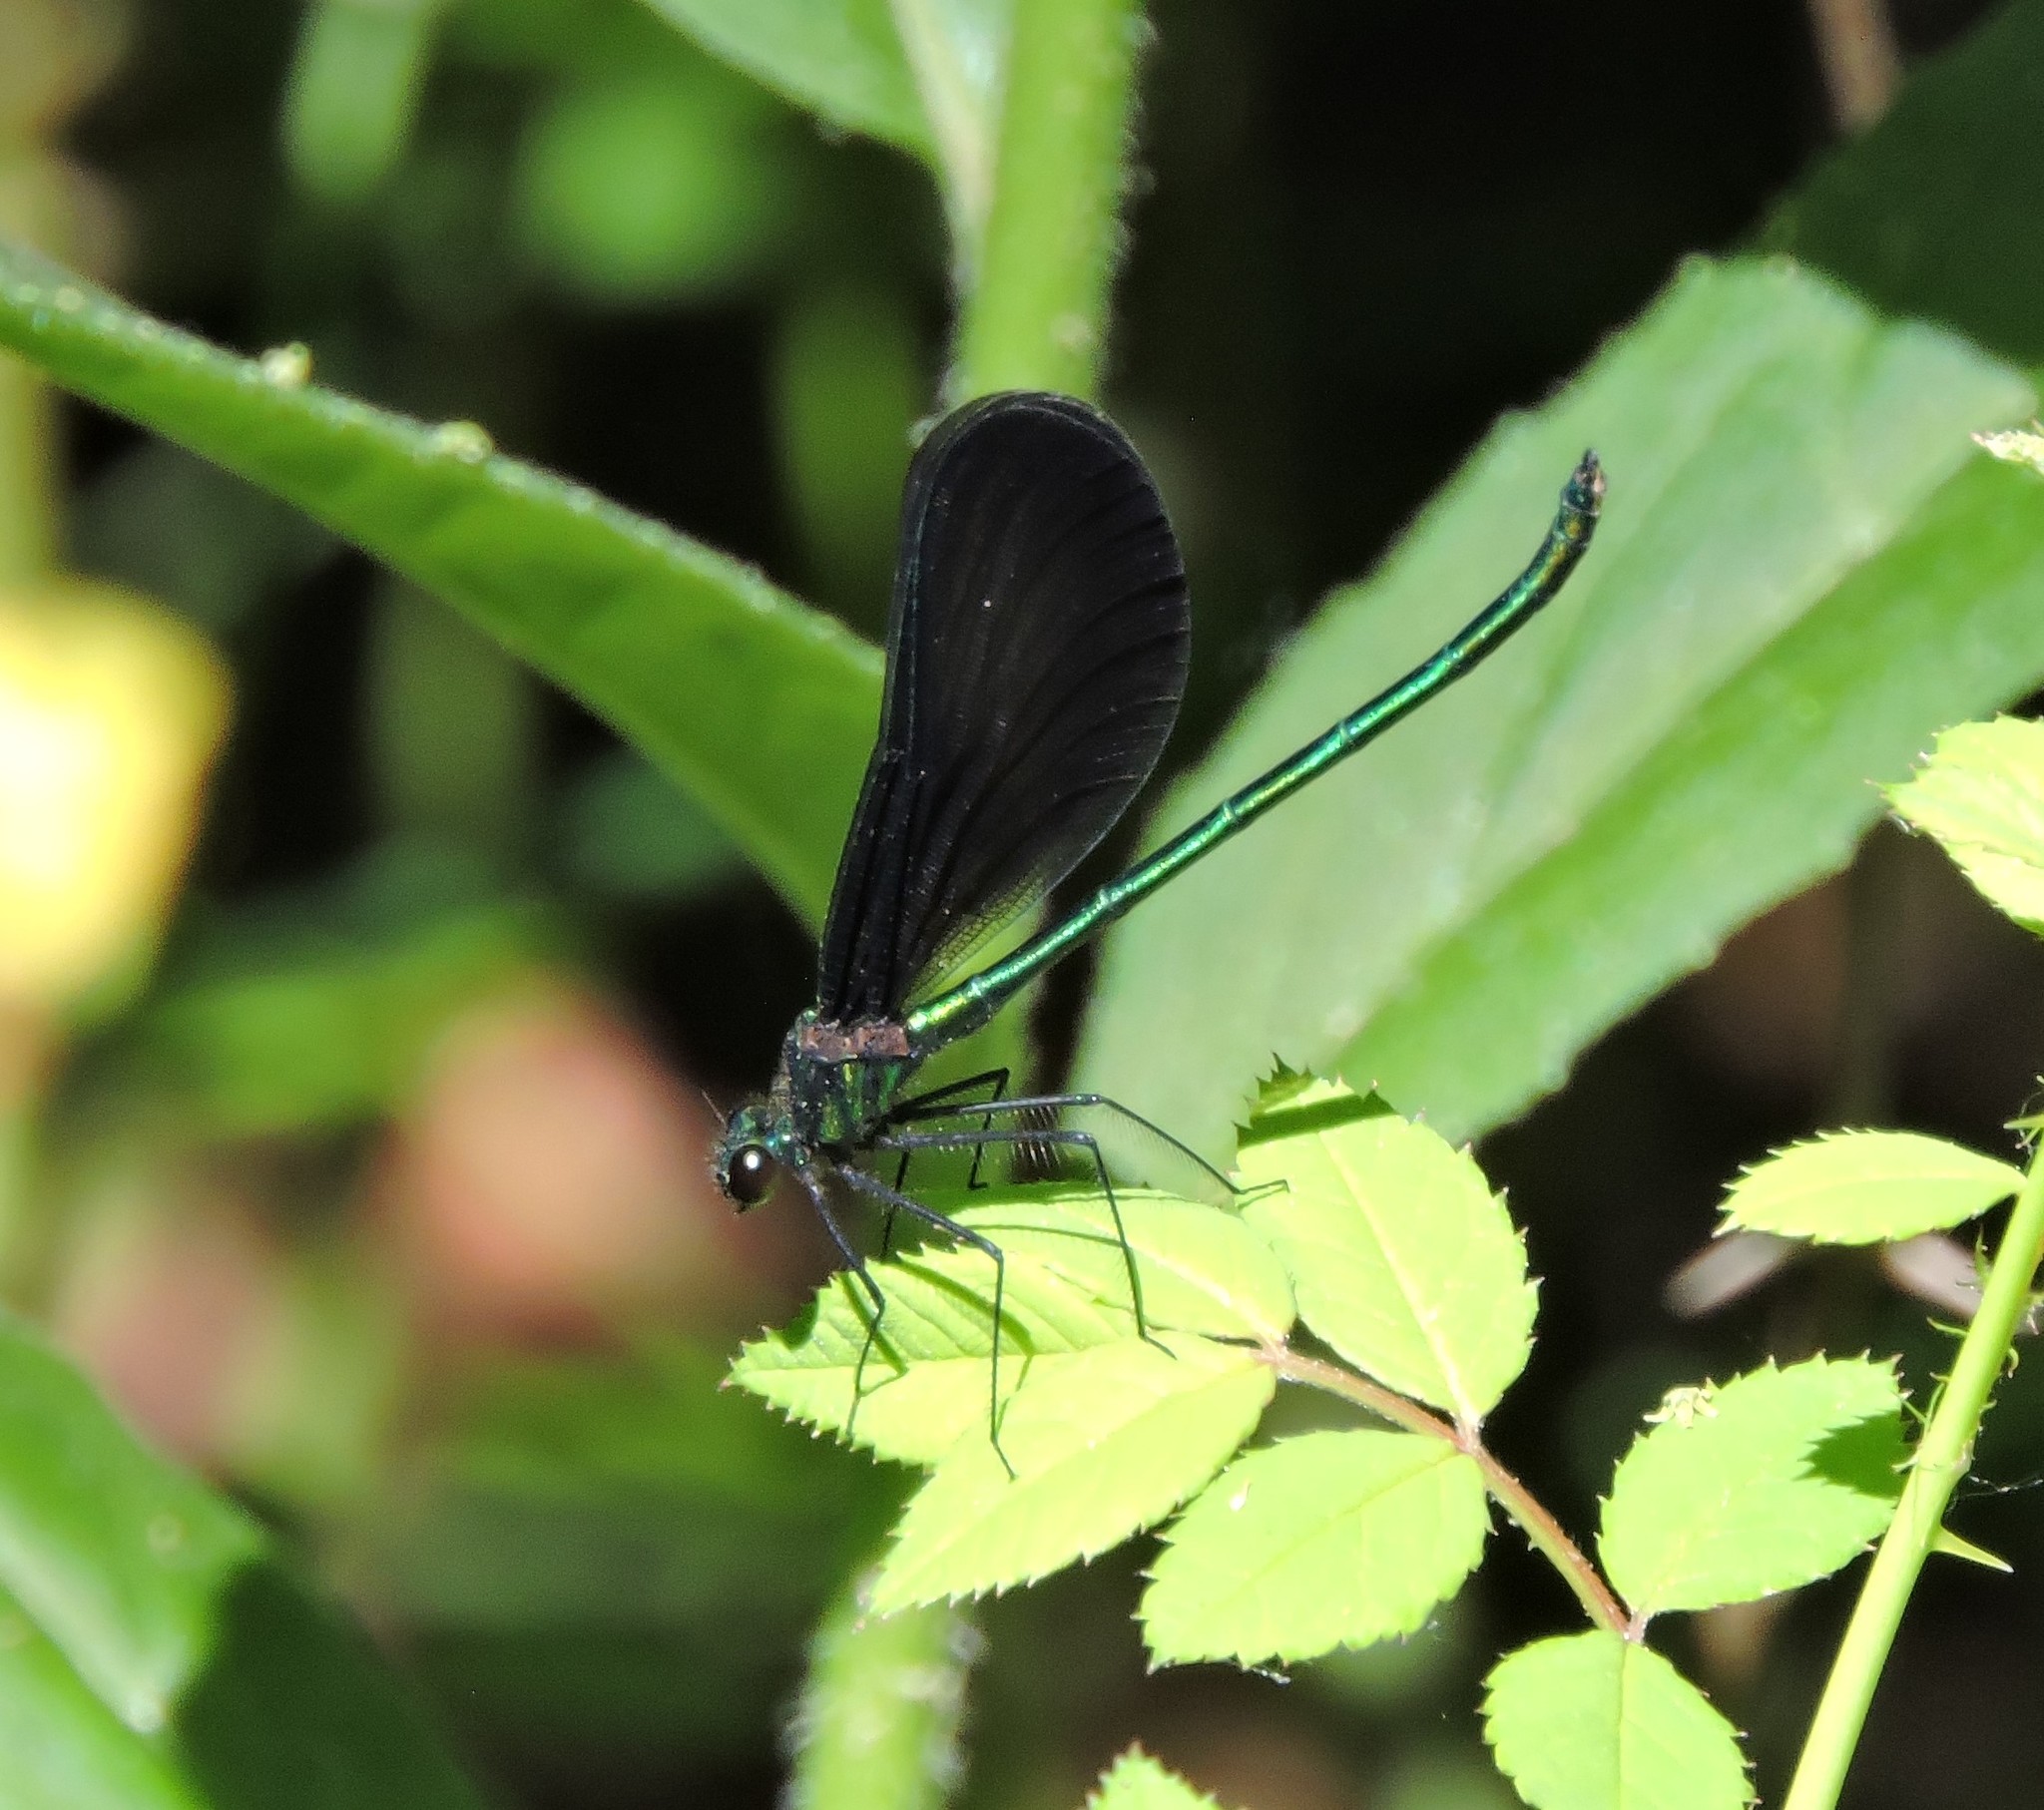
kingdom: Animalia
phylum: Arthropoda
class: Insecta
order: Odonata
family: Calopterygidae
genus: Calopteryx
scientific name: Calopteryx maculata
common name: Ebony jewelwing
